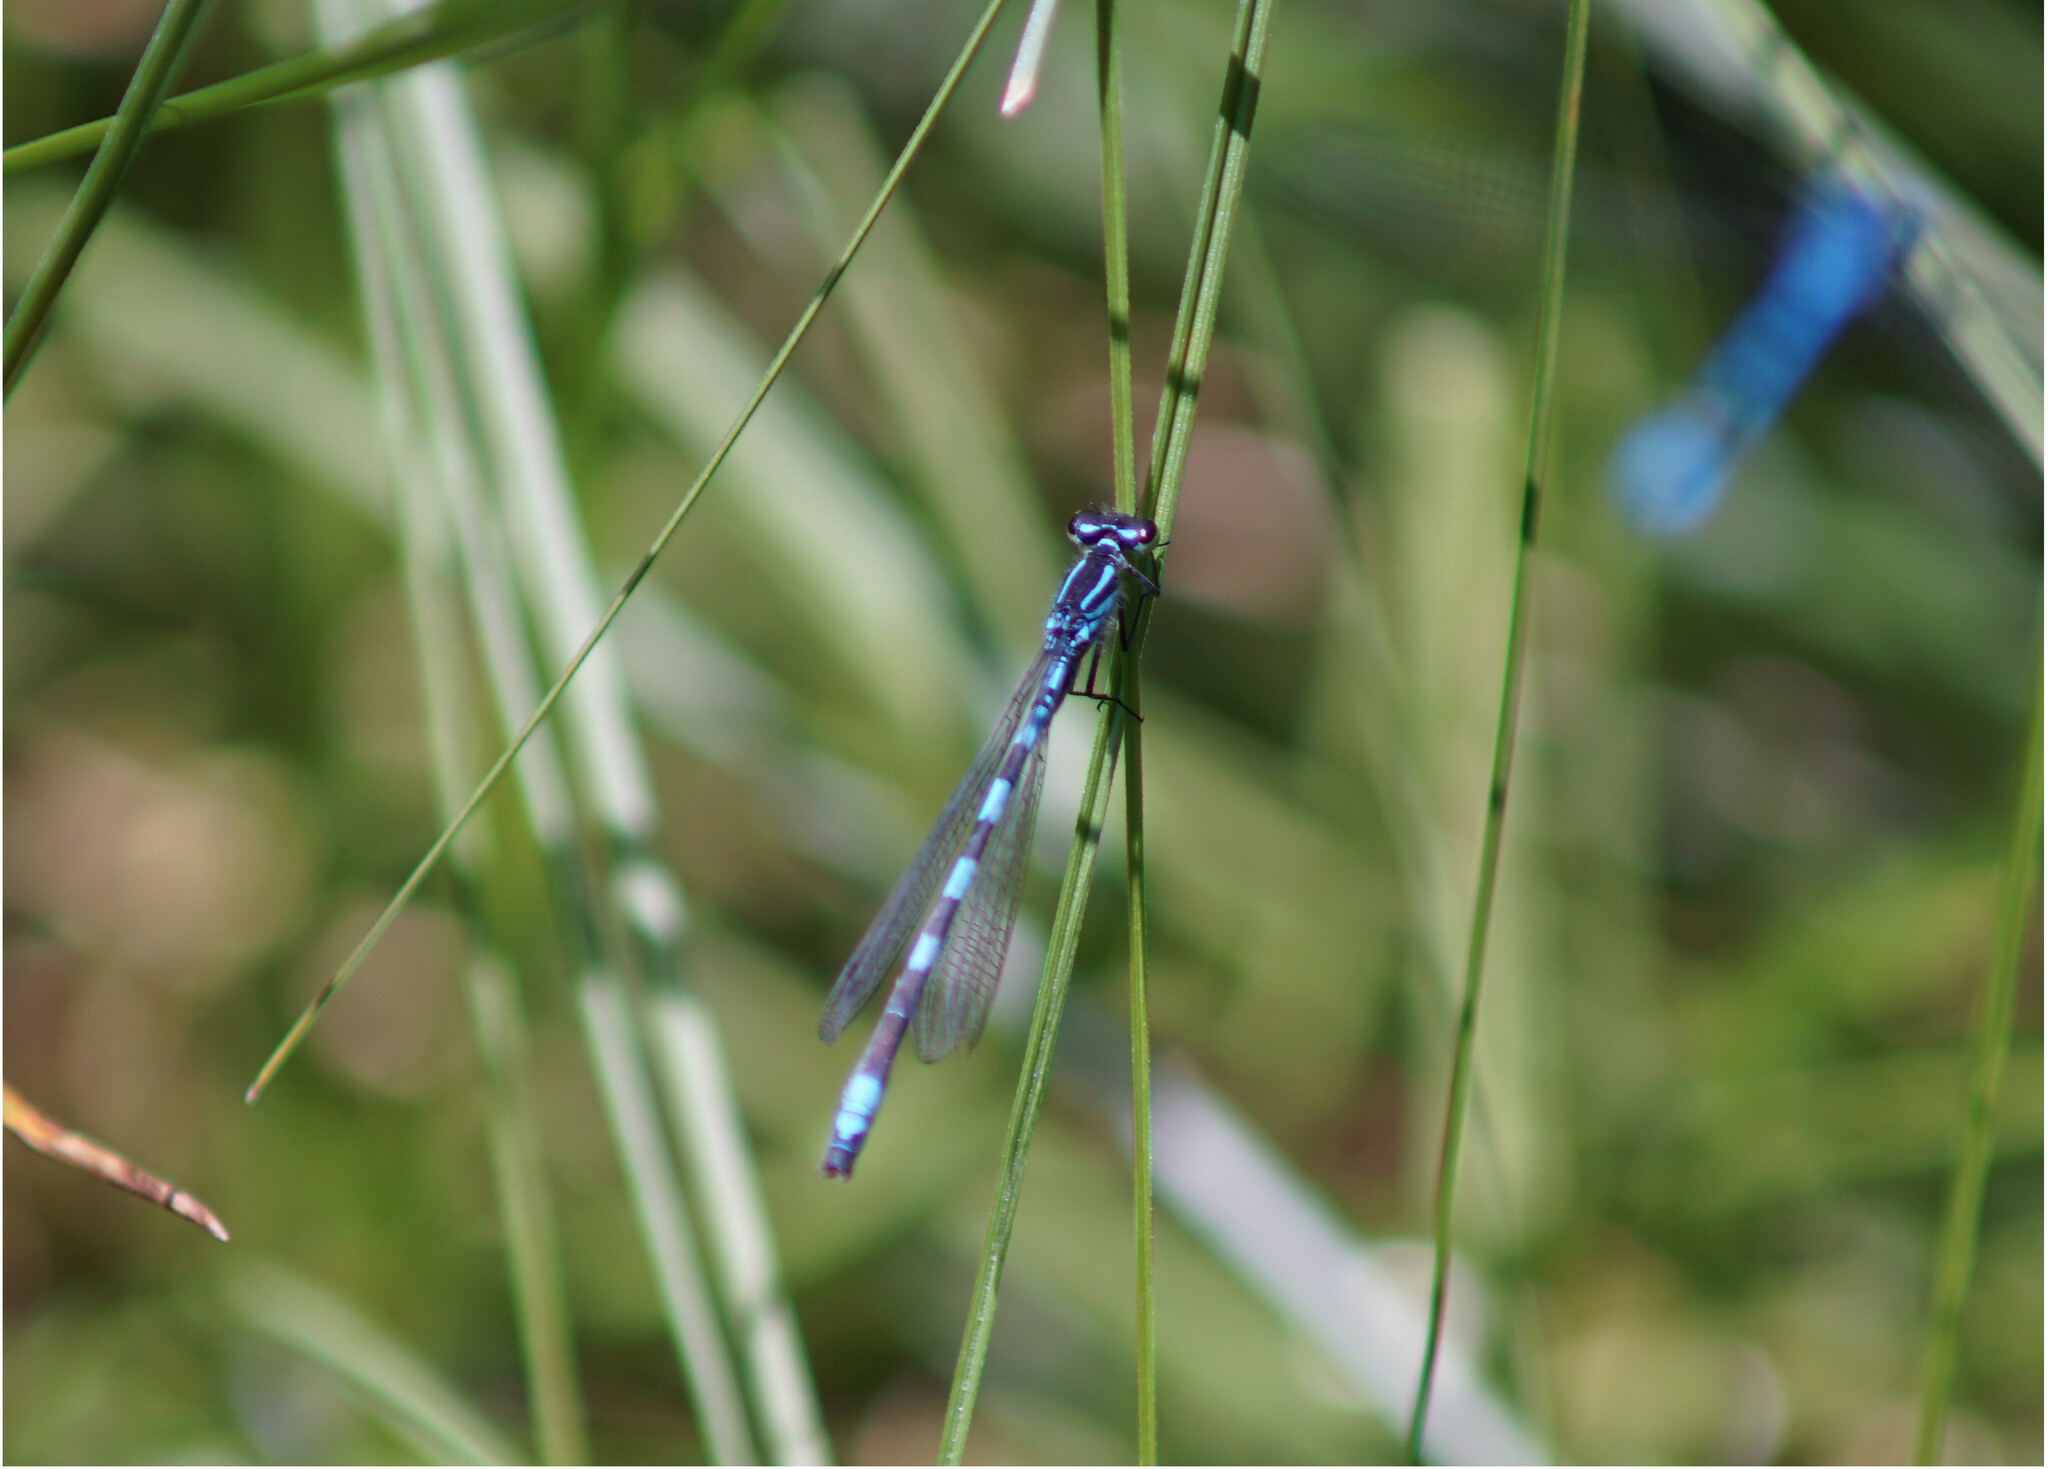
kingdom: Animalia
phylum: Arthropoda
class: Insecta
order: Odonata
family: Coenagrionidae
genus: Coenagrion
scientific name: Coenagrion hastulatum
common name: Spearhead bluet
